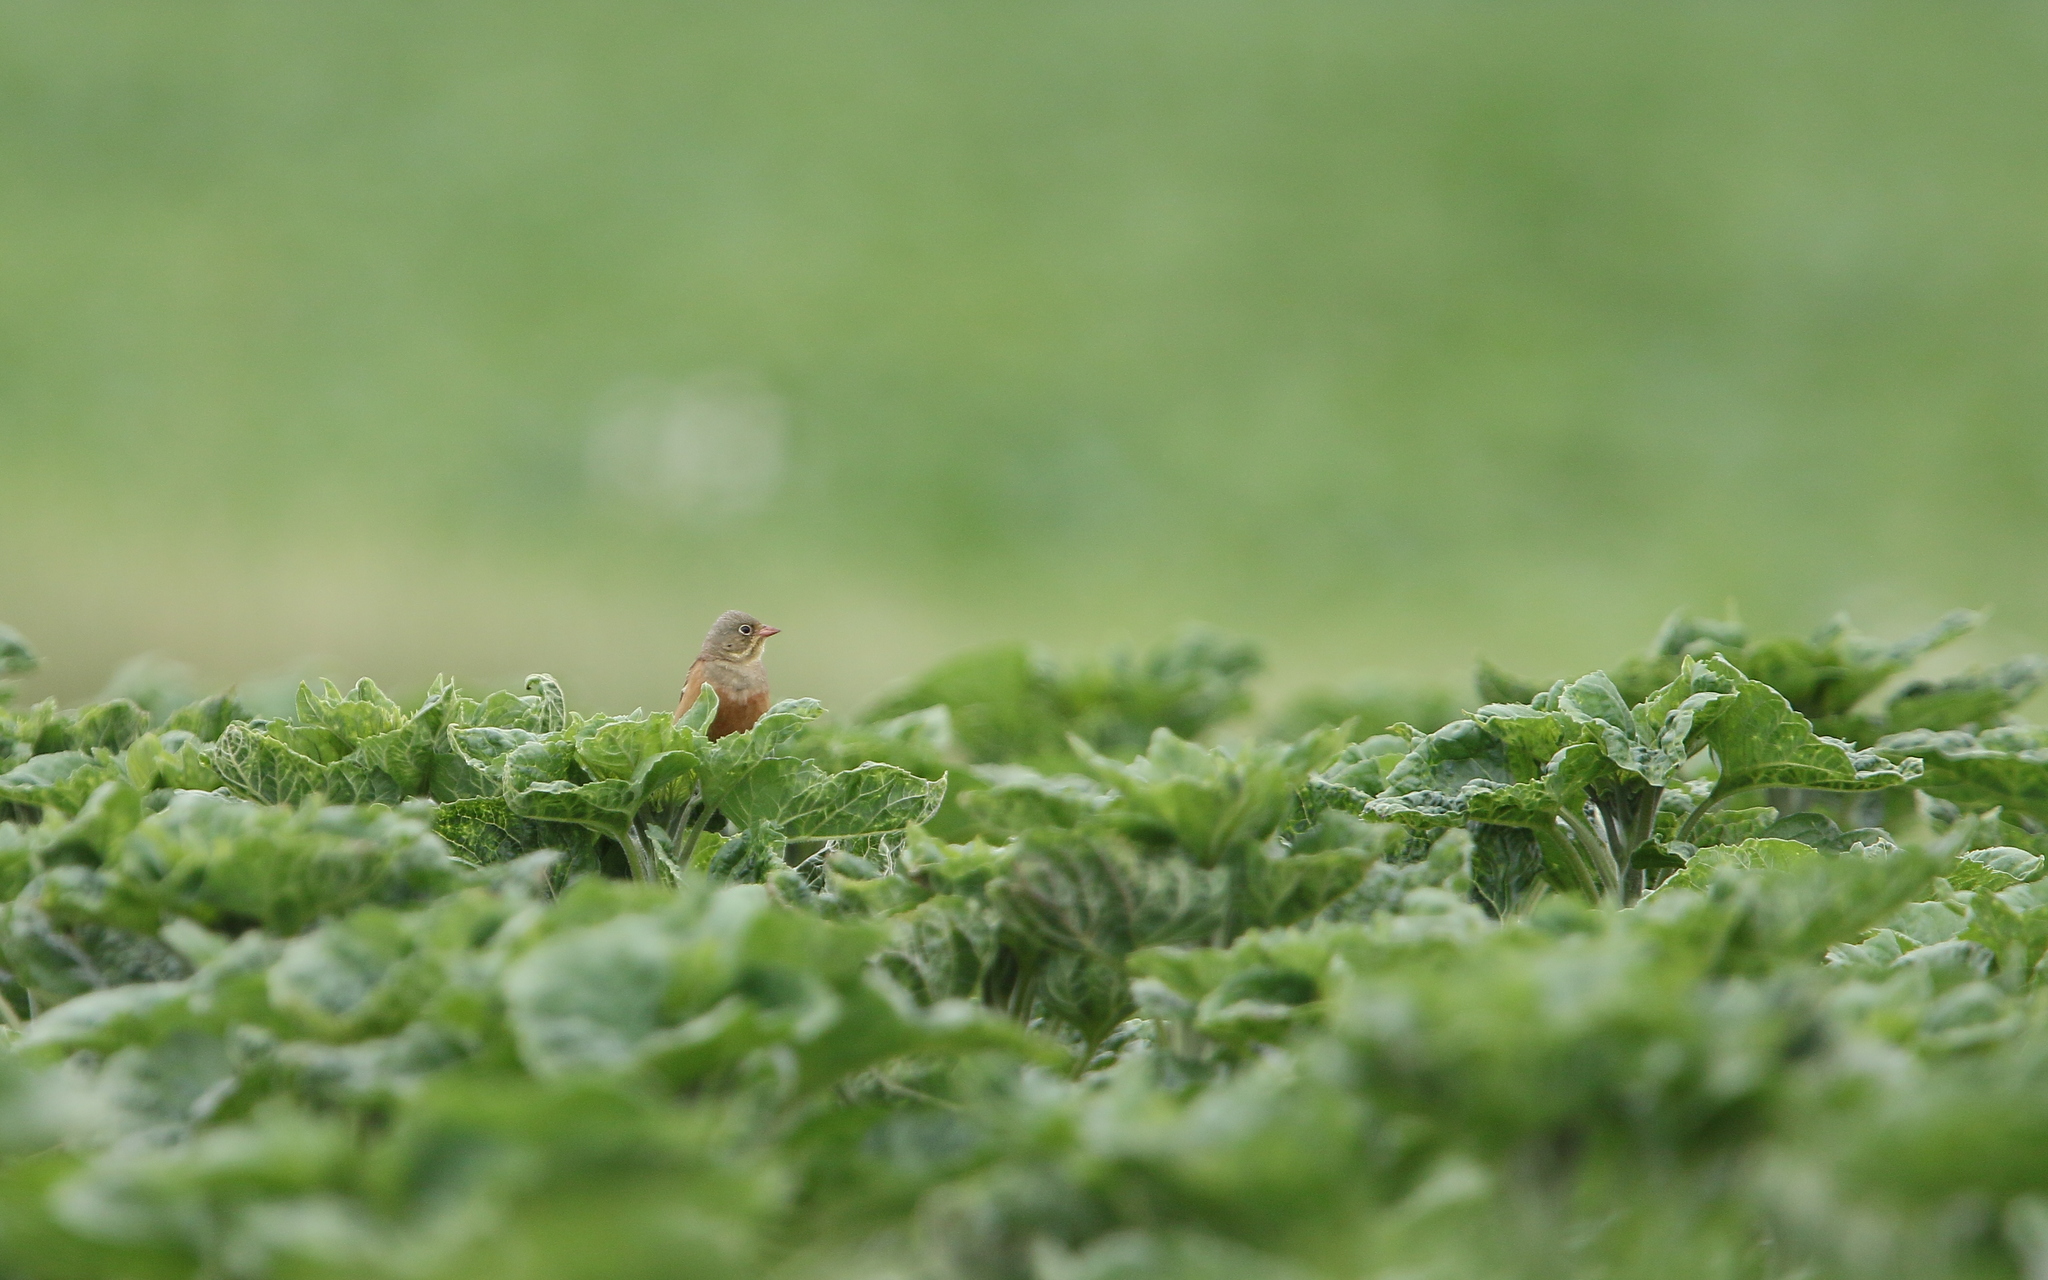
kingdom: Animalia
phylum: Chordata
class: Aves
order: Passeriformes
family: Emberizidae
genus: Emberiza
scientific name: Emberiza hortulana
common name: Ortolan bunting
